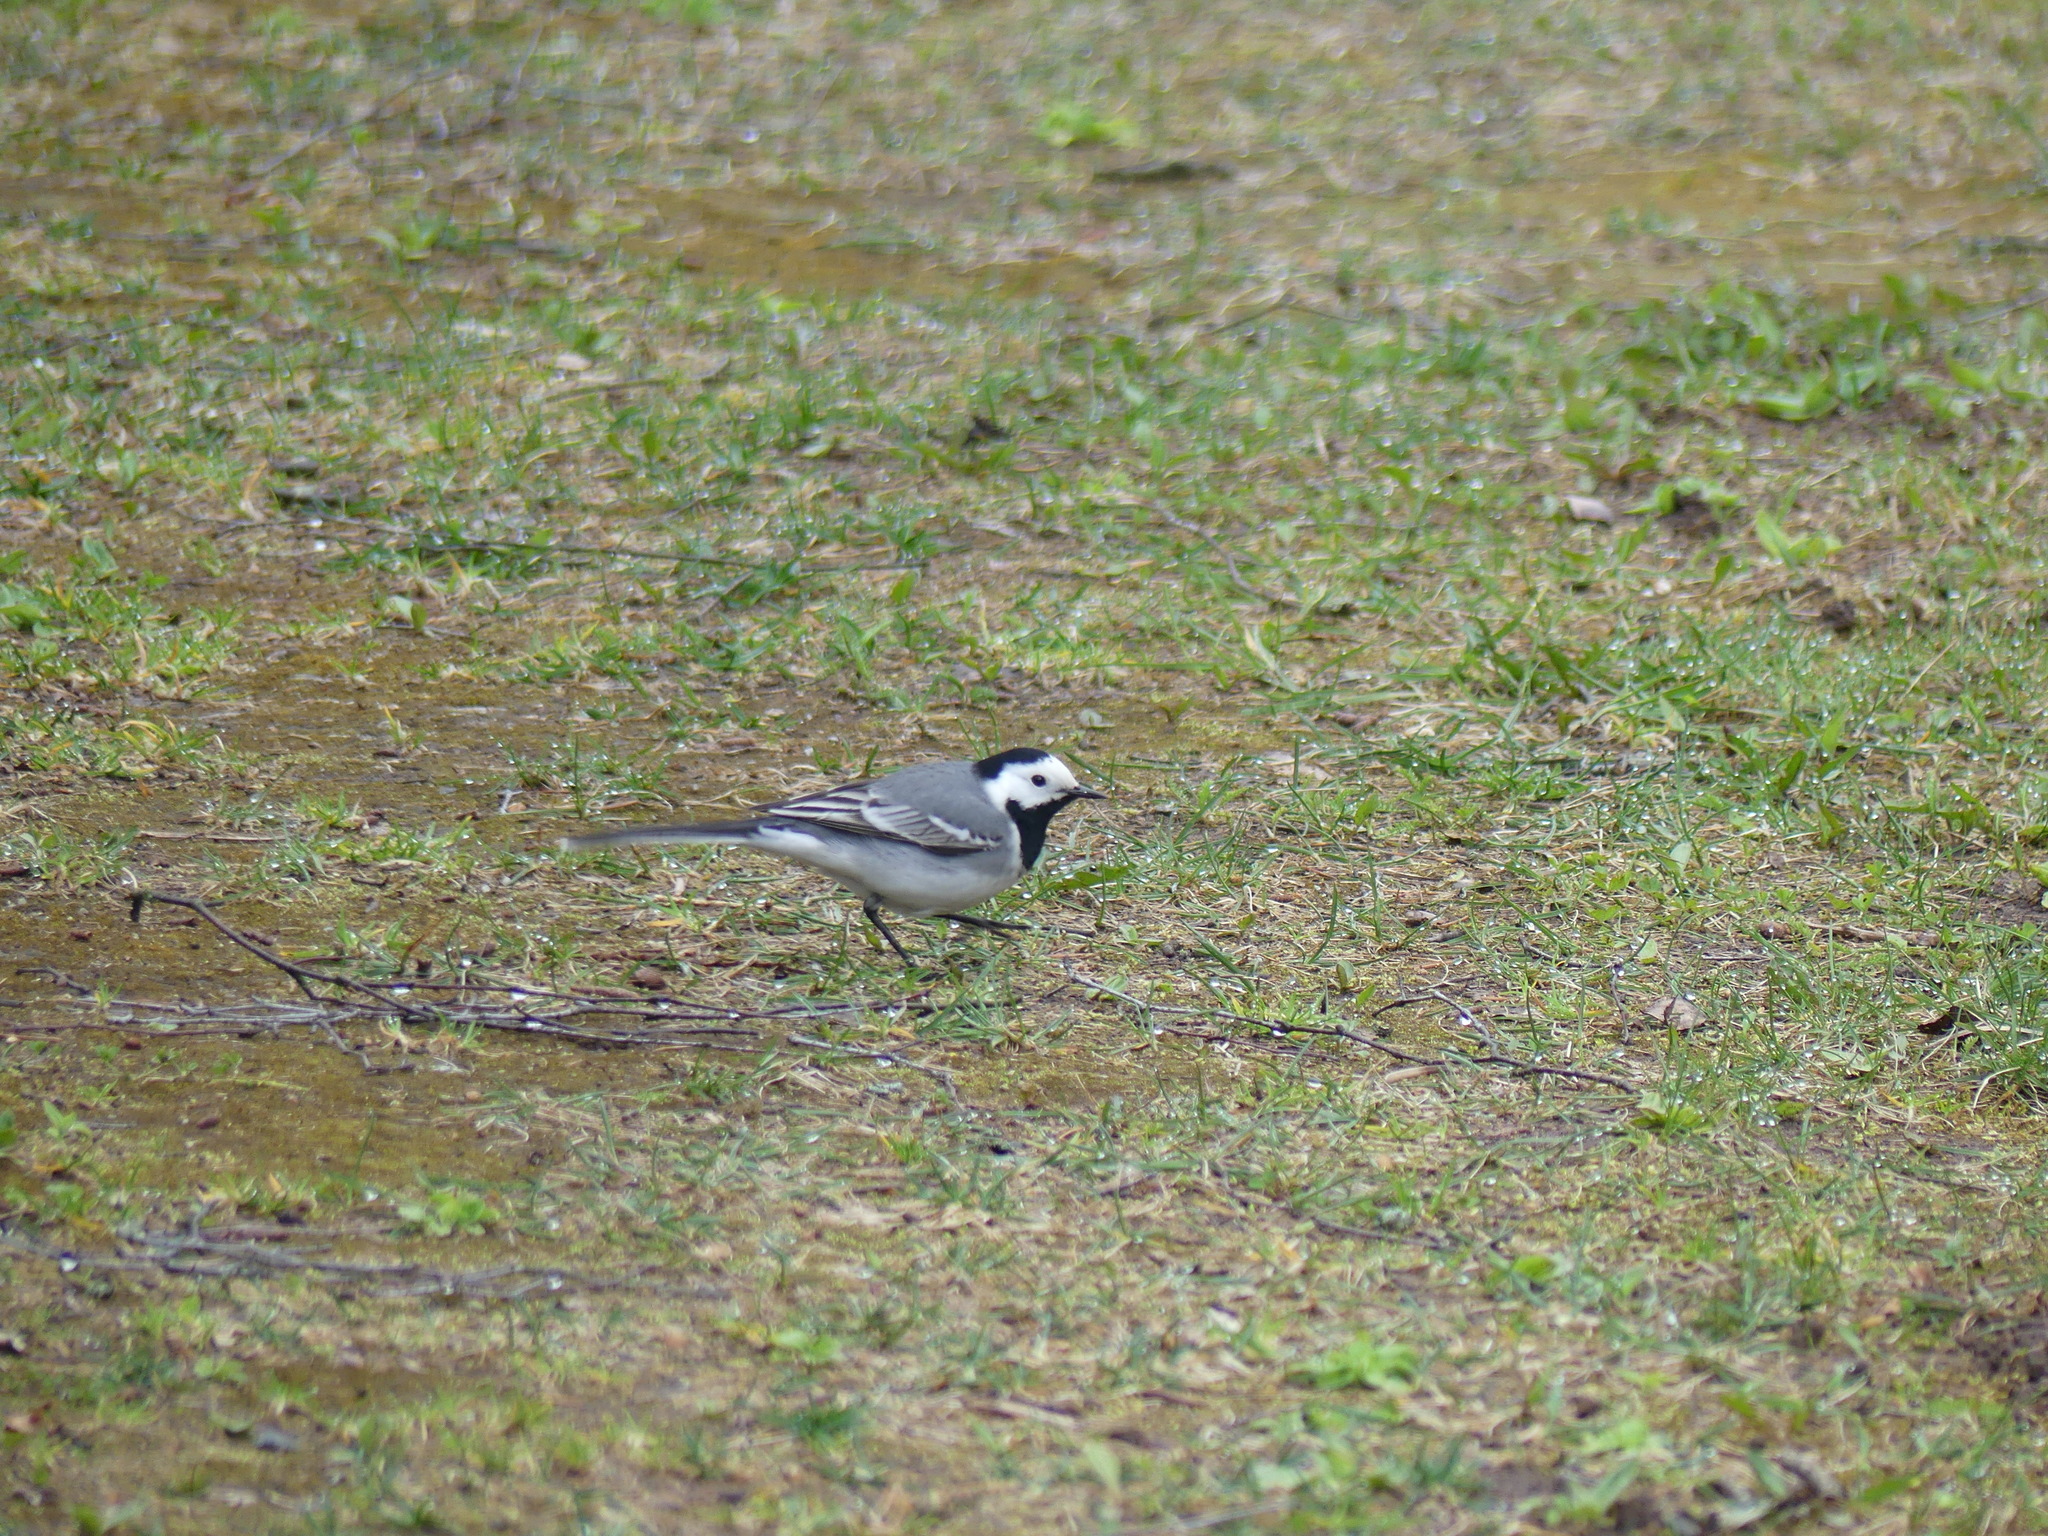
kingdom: Animalia
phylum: Chordata
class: Aves
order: Passeriformes
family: Motacillidae
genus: Motacilla
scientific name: Motacilla alba
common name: White wagtail
